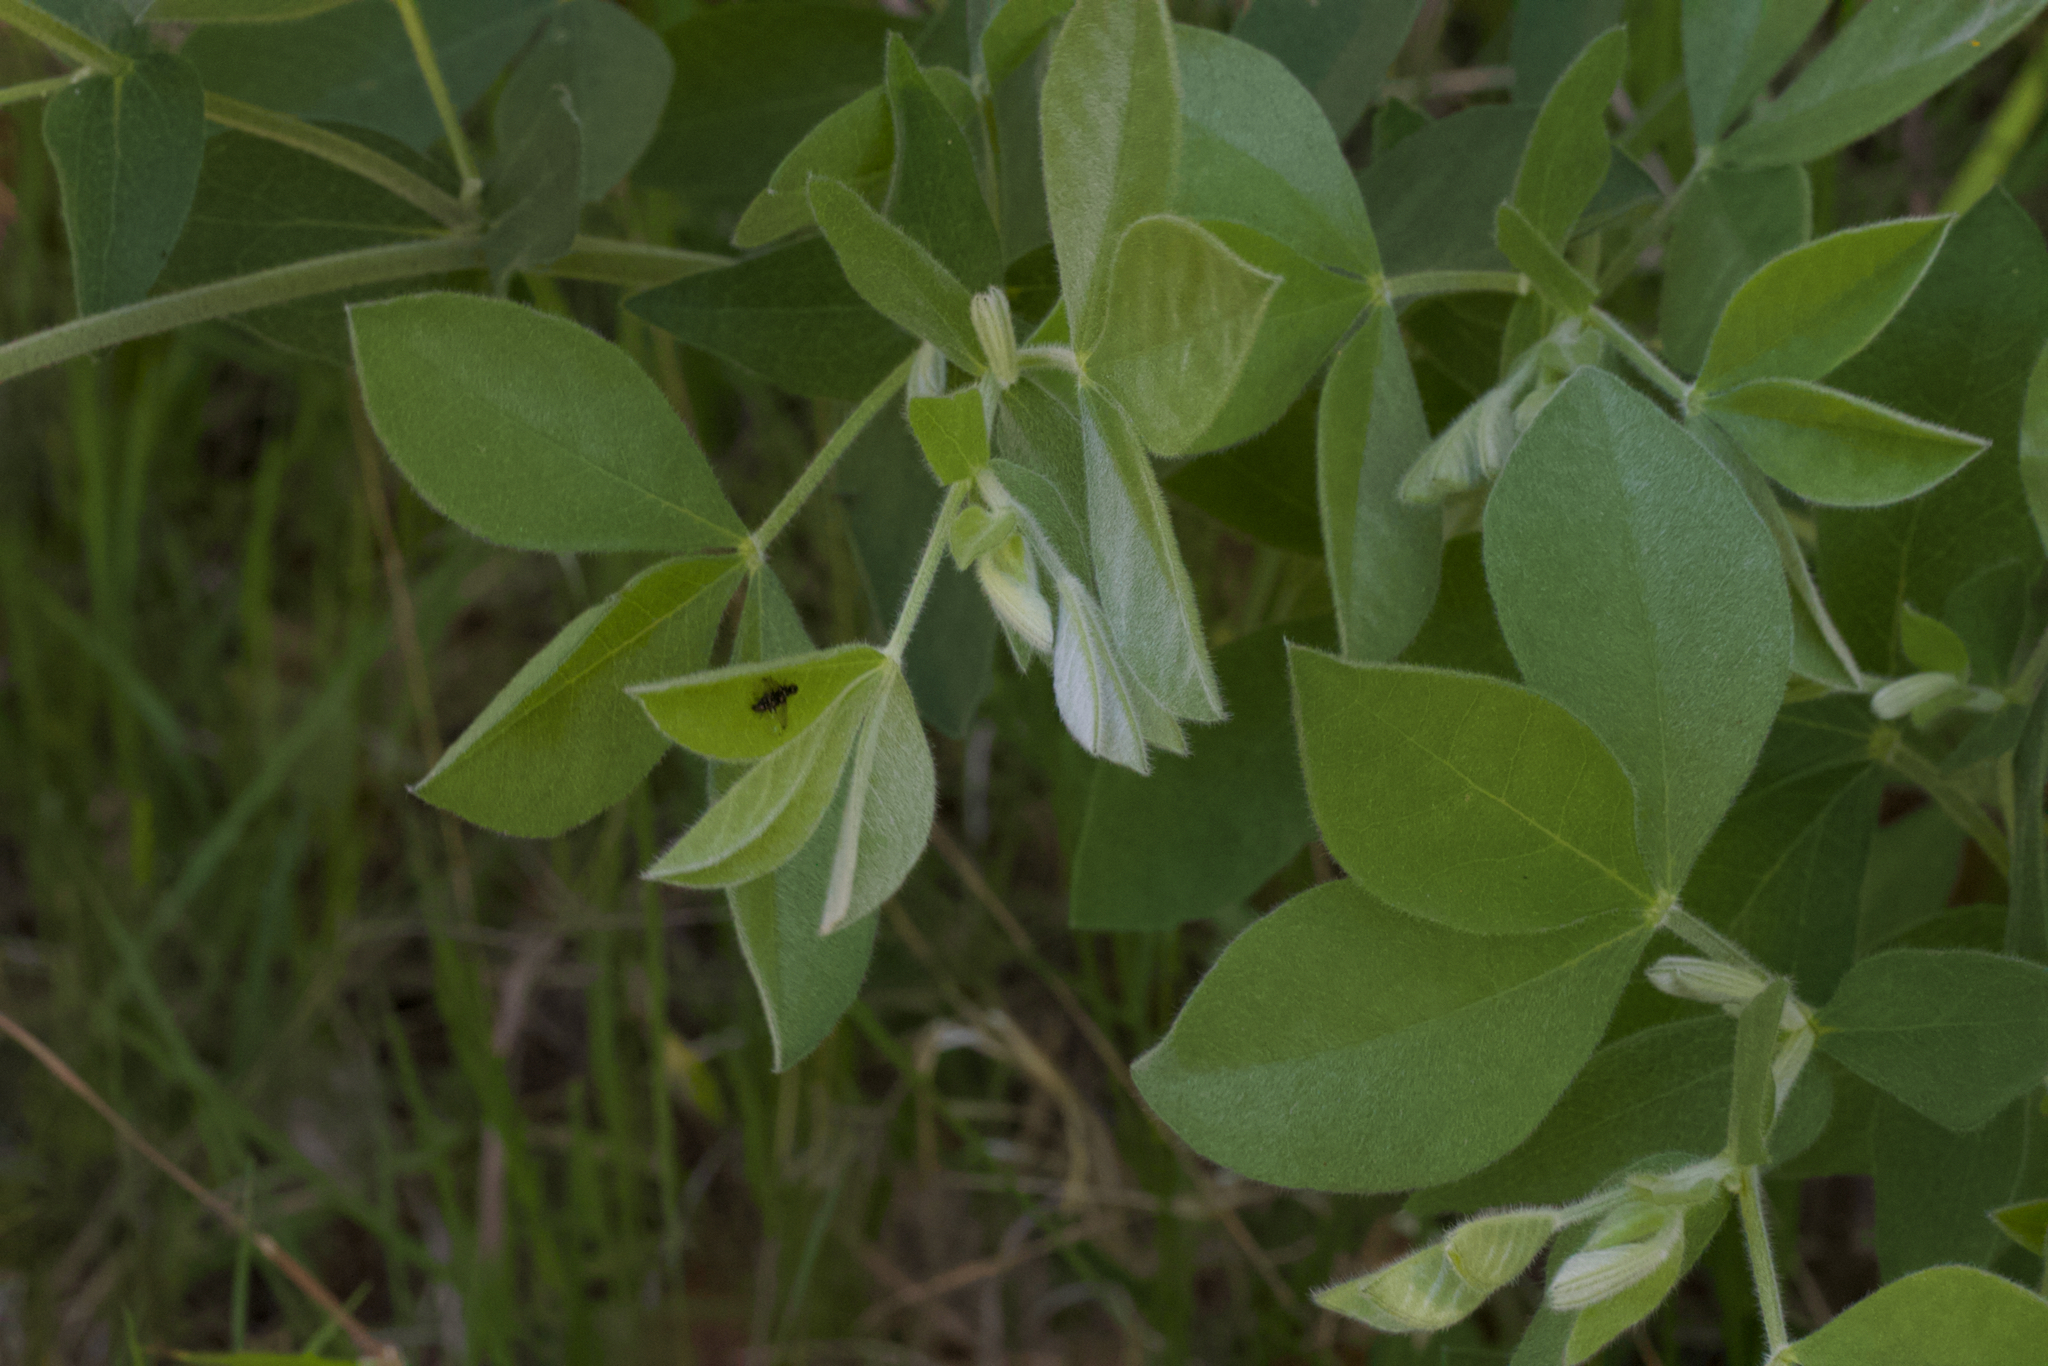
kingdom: Plantae
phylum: Tracheophyta
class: Magnoliopsida
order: Fabales
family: Fabaceae
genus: Thermopsis
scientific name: Thermopsis californica
